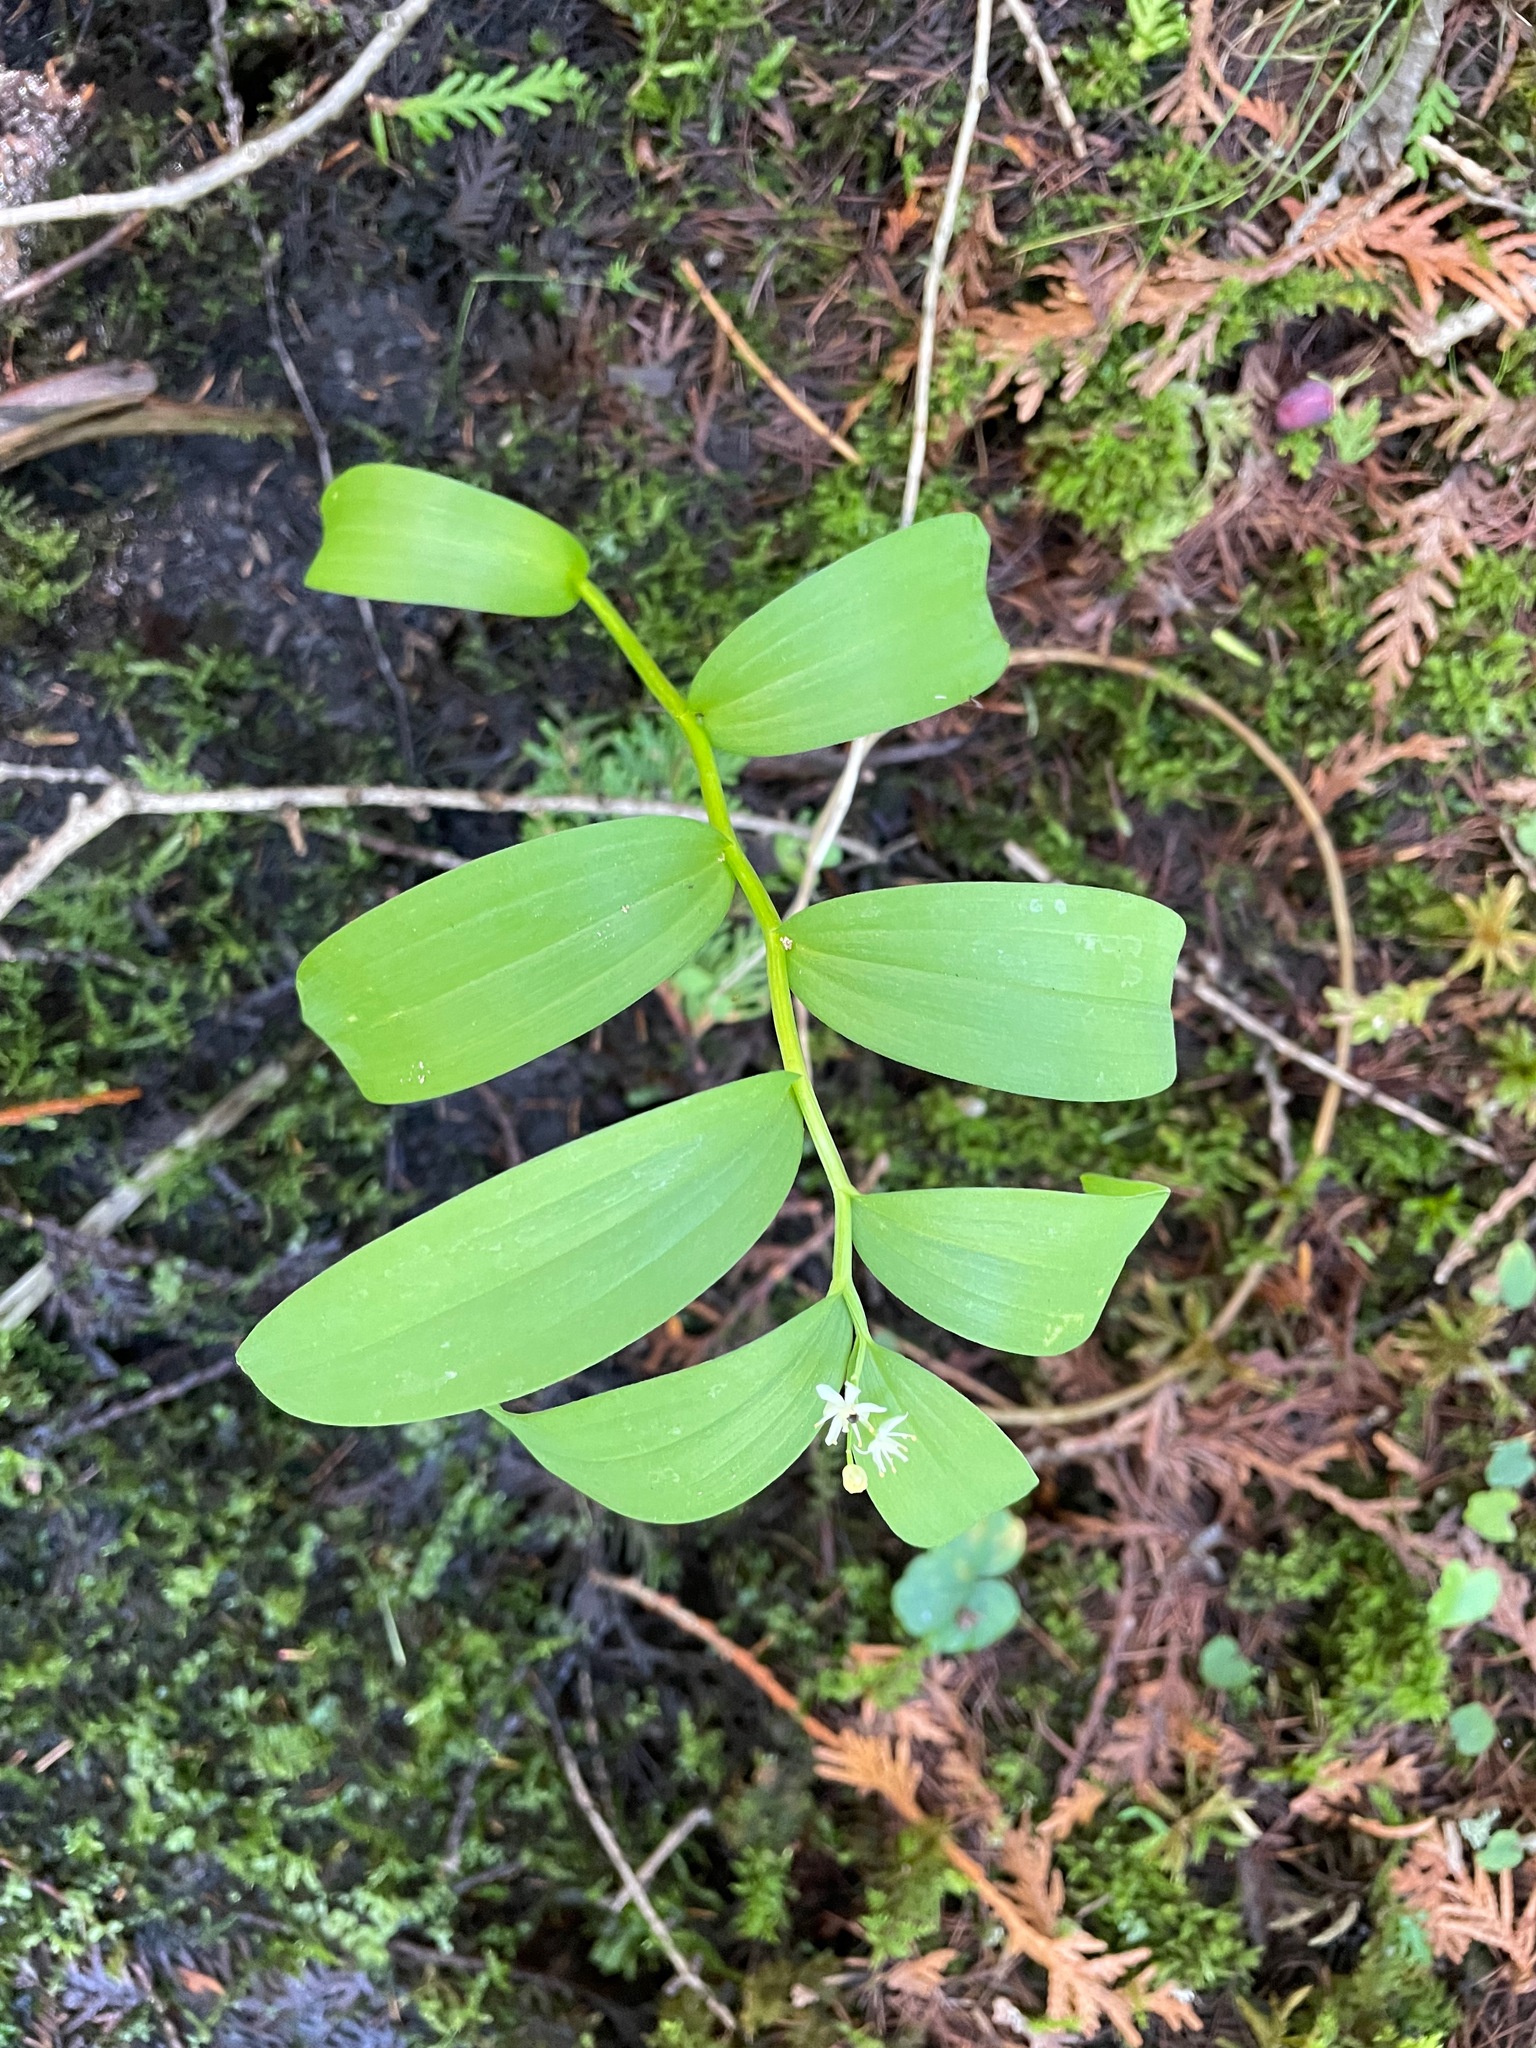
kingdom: Plantae
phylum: Tracheophyta
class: Liliopsida
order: Asparagales
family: Asparagaceae
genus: Maianthemum
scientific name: Maianthemum stellatum
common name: Little false solomon's seal
